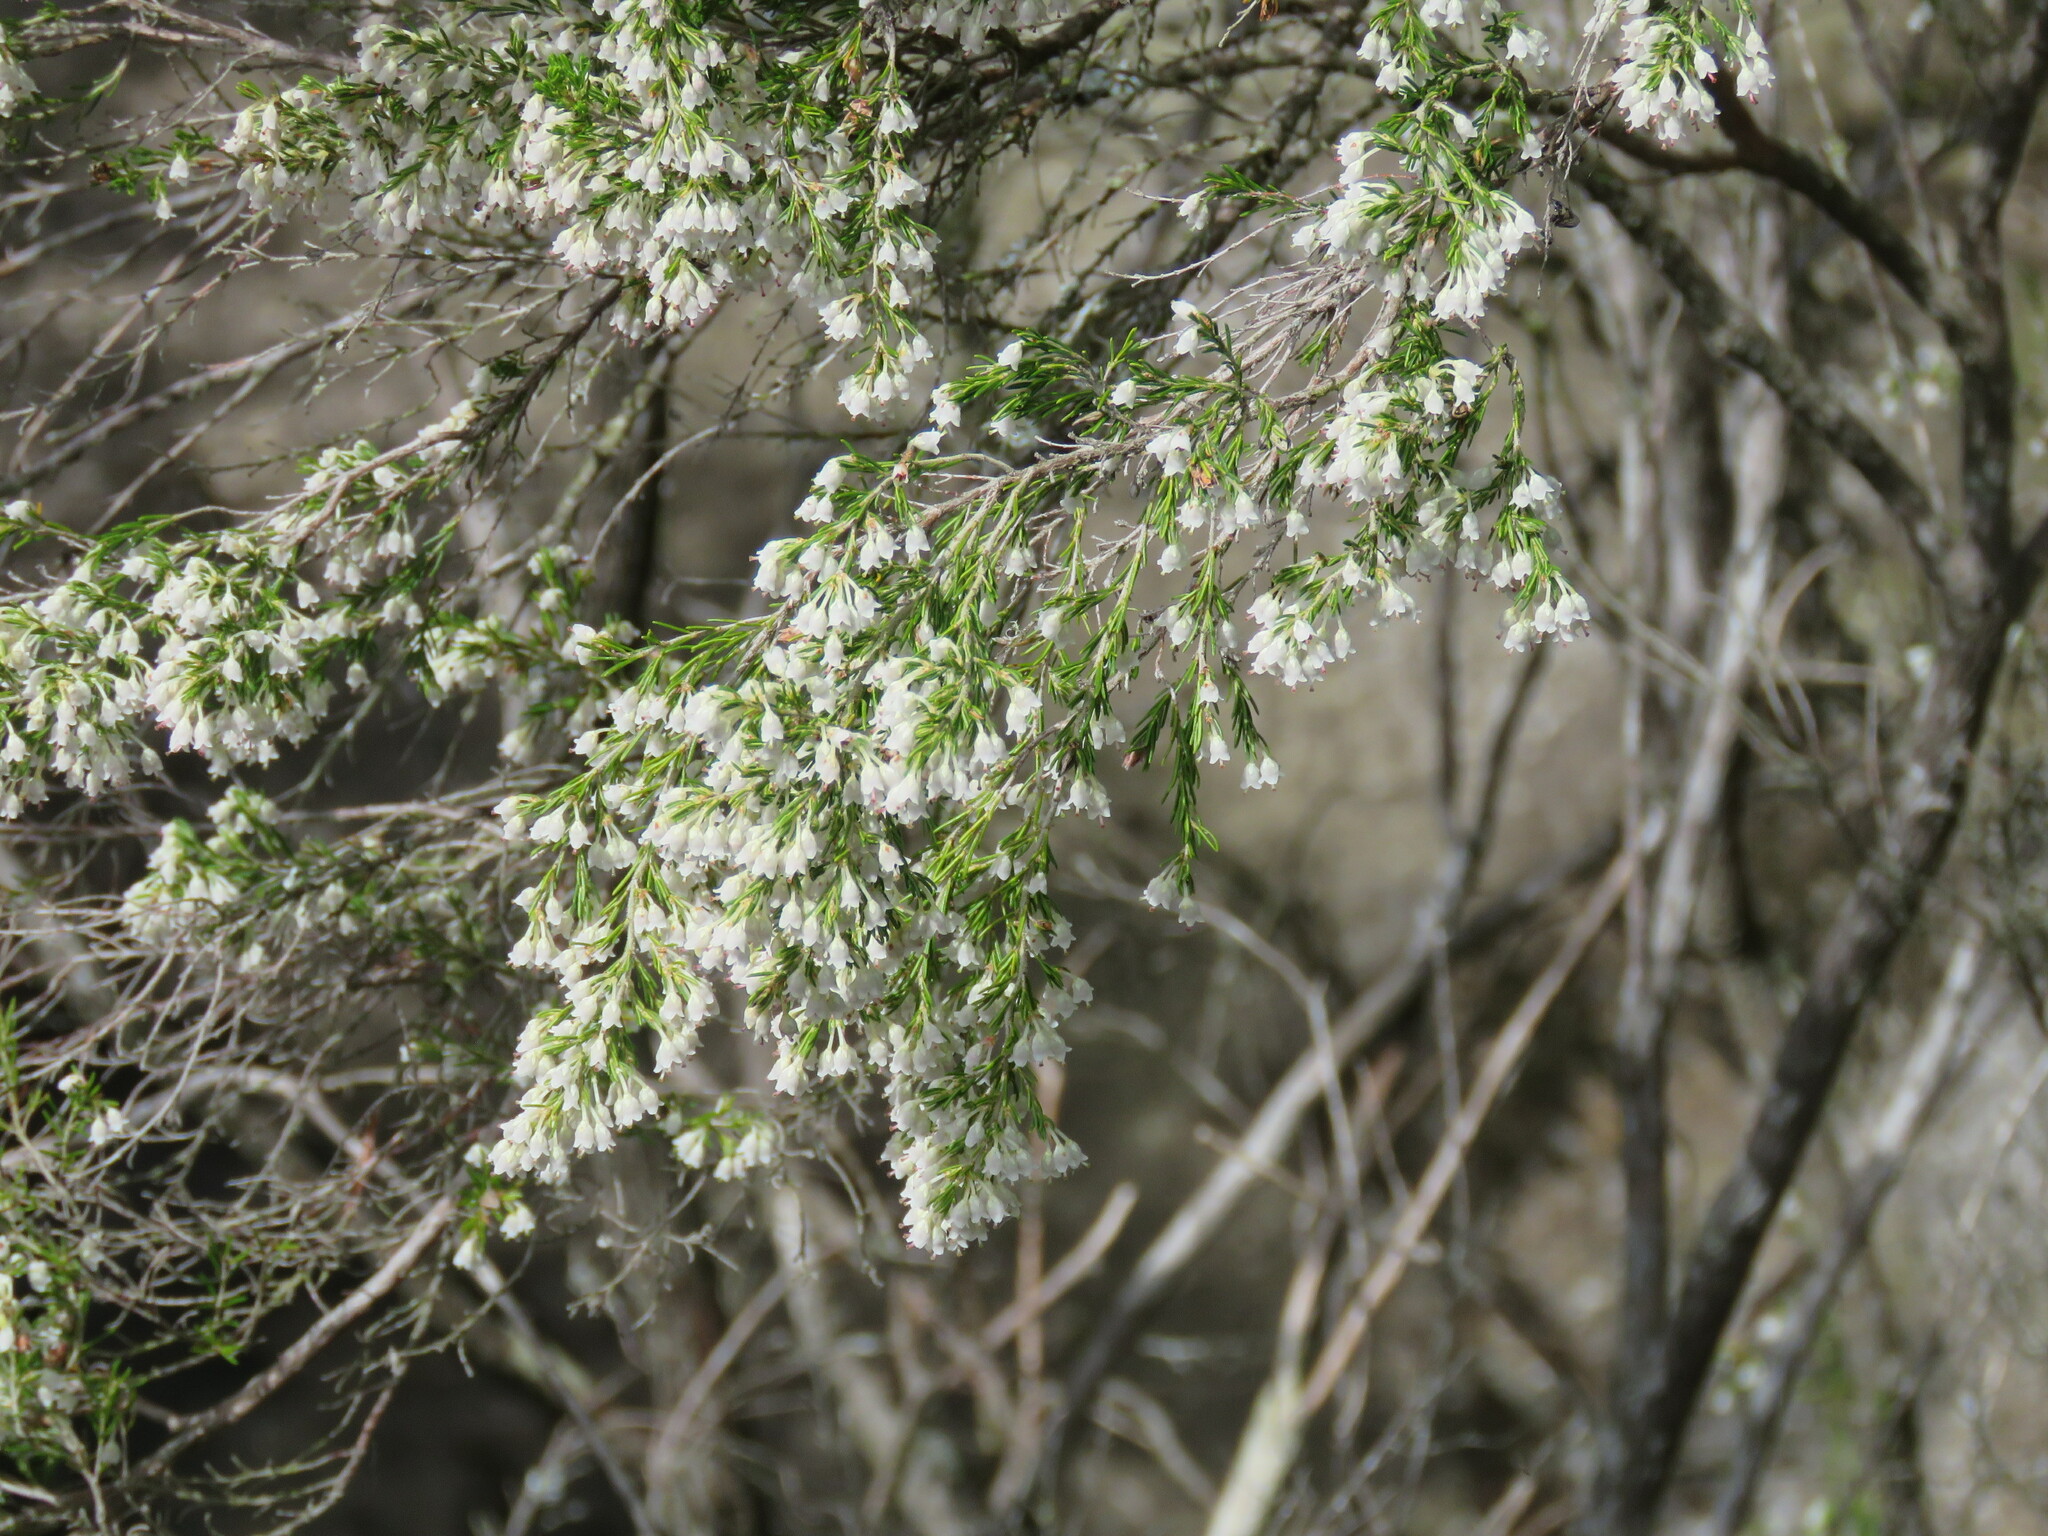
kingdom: Plantae
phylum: Tracheophyta
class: Magnoliopsida
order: Ericales
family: Ericaceae
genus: Erica
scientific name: Erica arborea
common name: Tree heath
